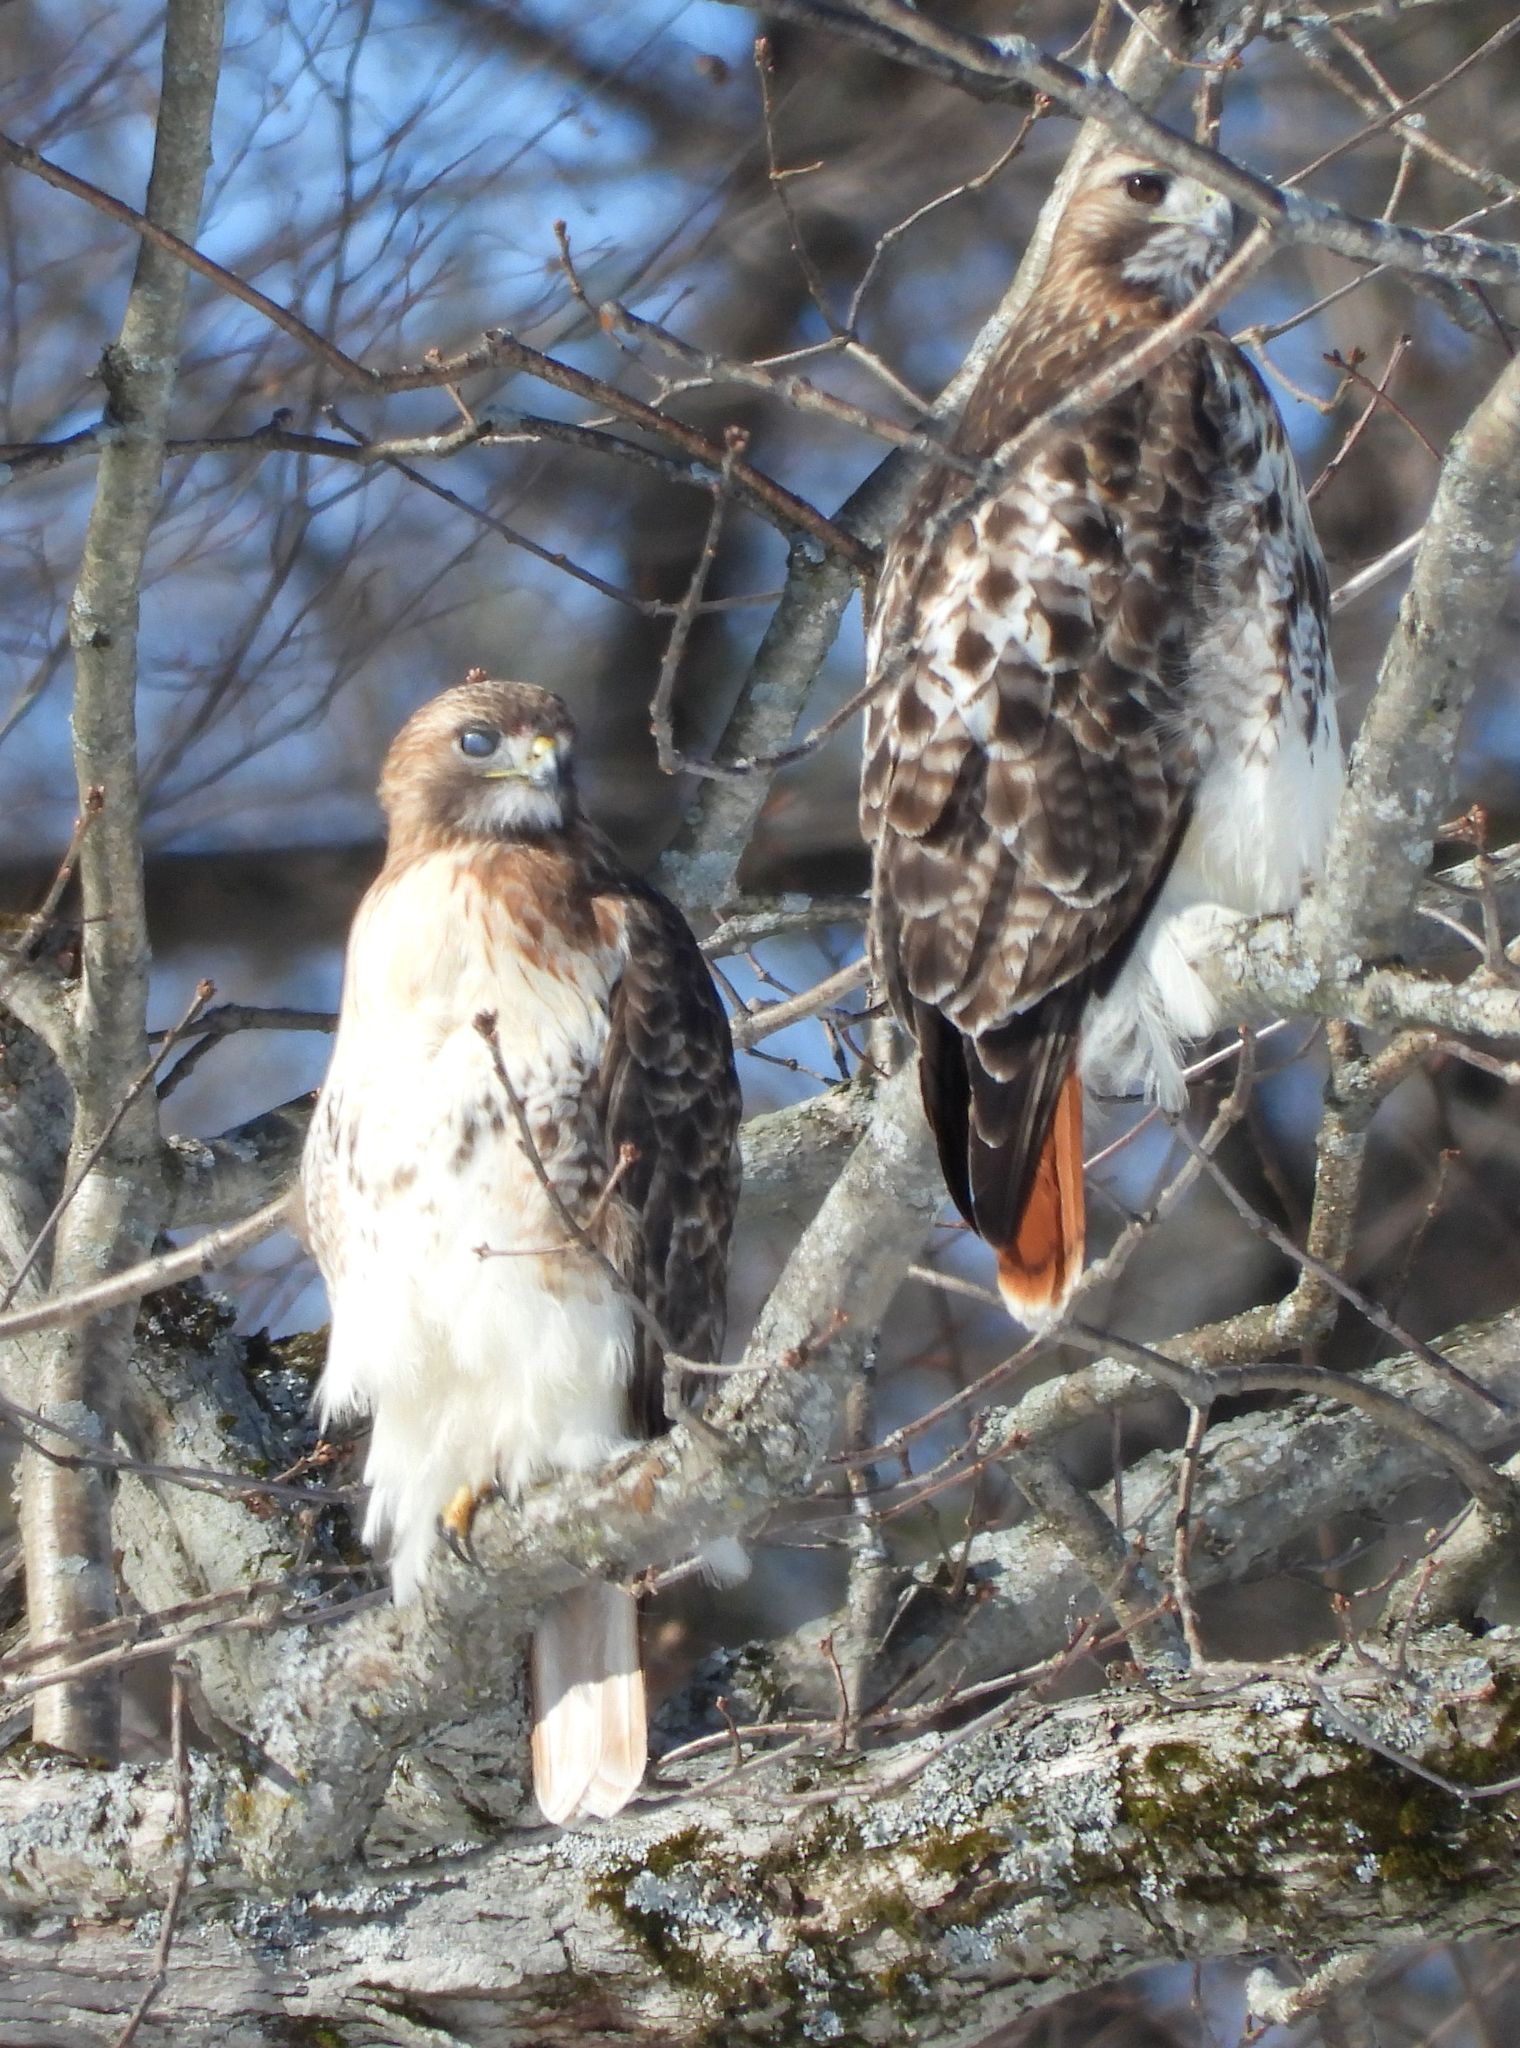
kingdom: Animalia
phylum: Chordata
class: Aves
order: Accipitriformes
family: Accipitridae
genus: Buteo
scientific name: Buteo jamaicensis
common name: Red-tailed hawk
